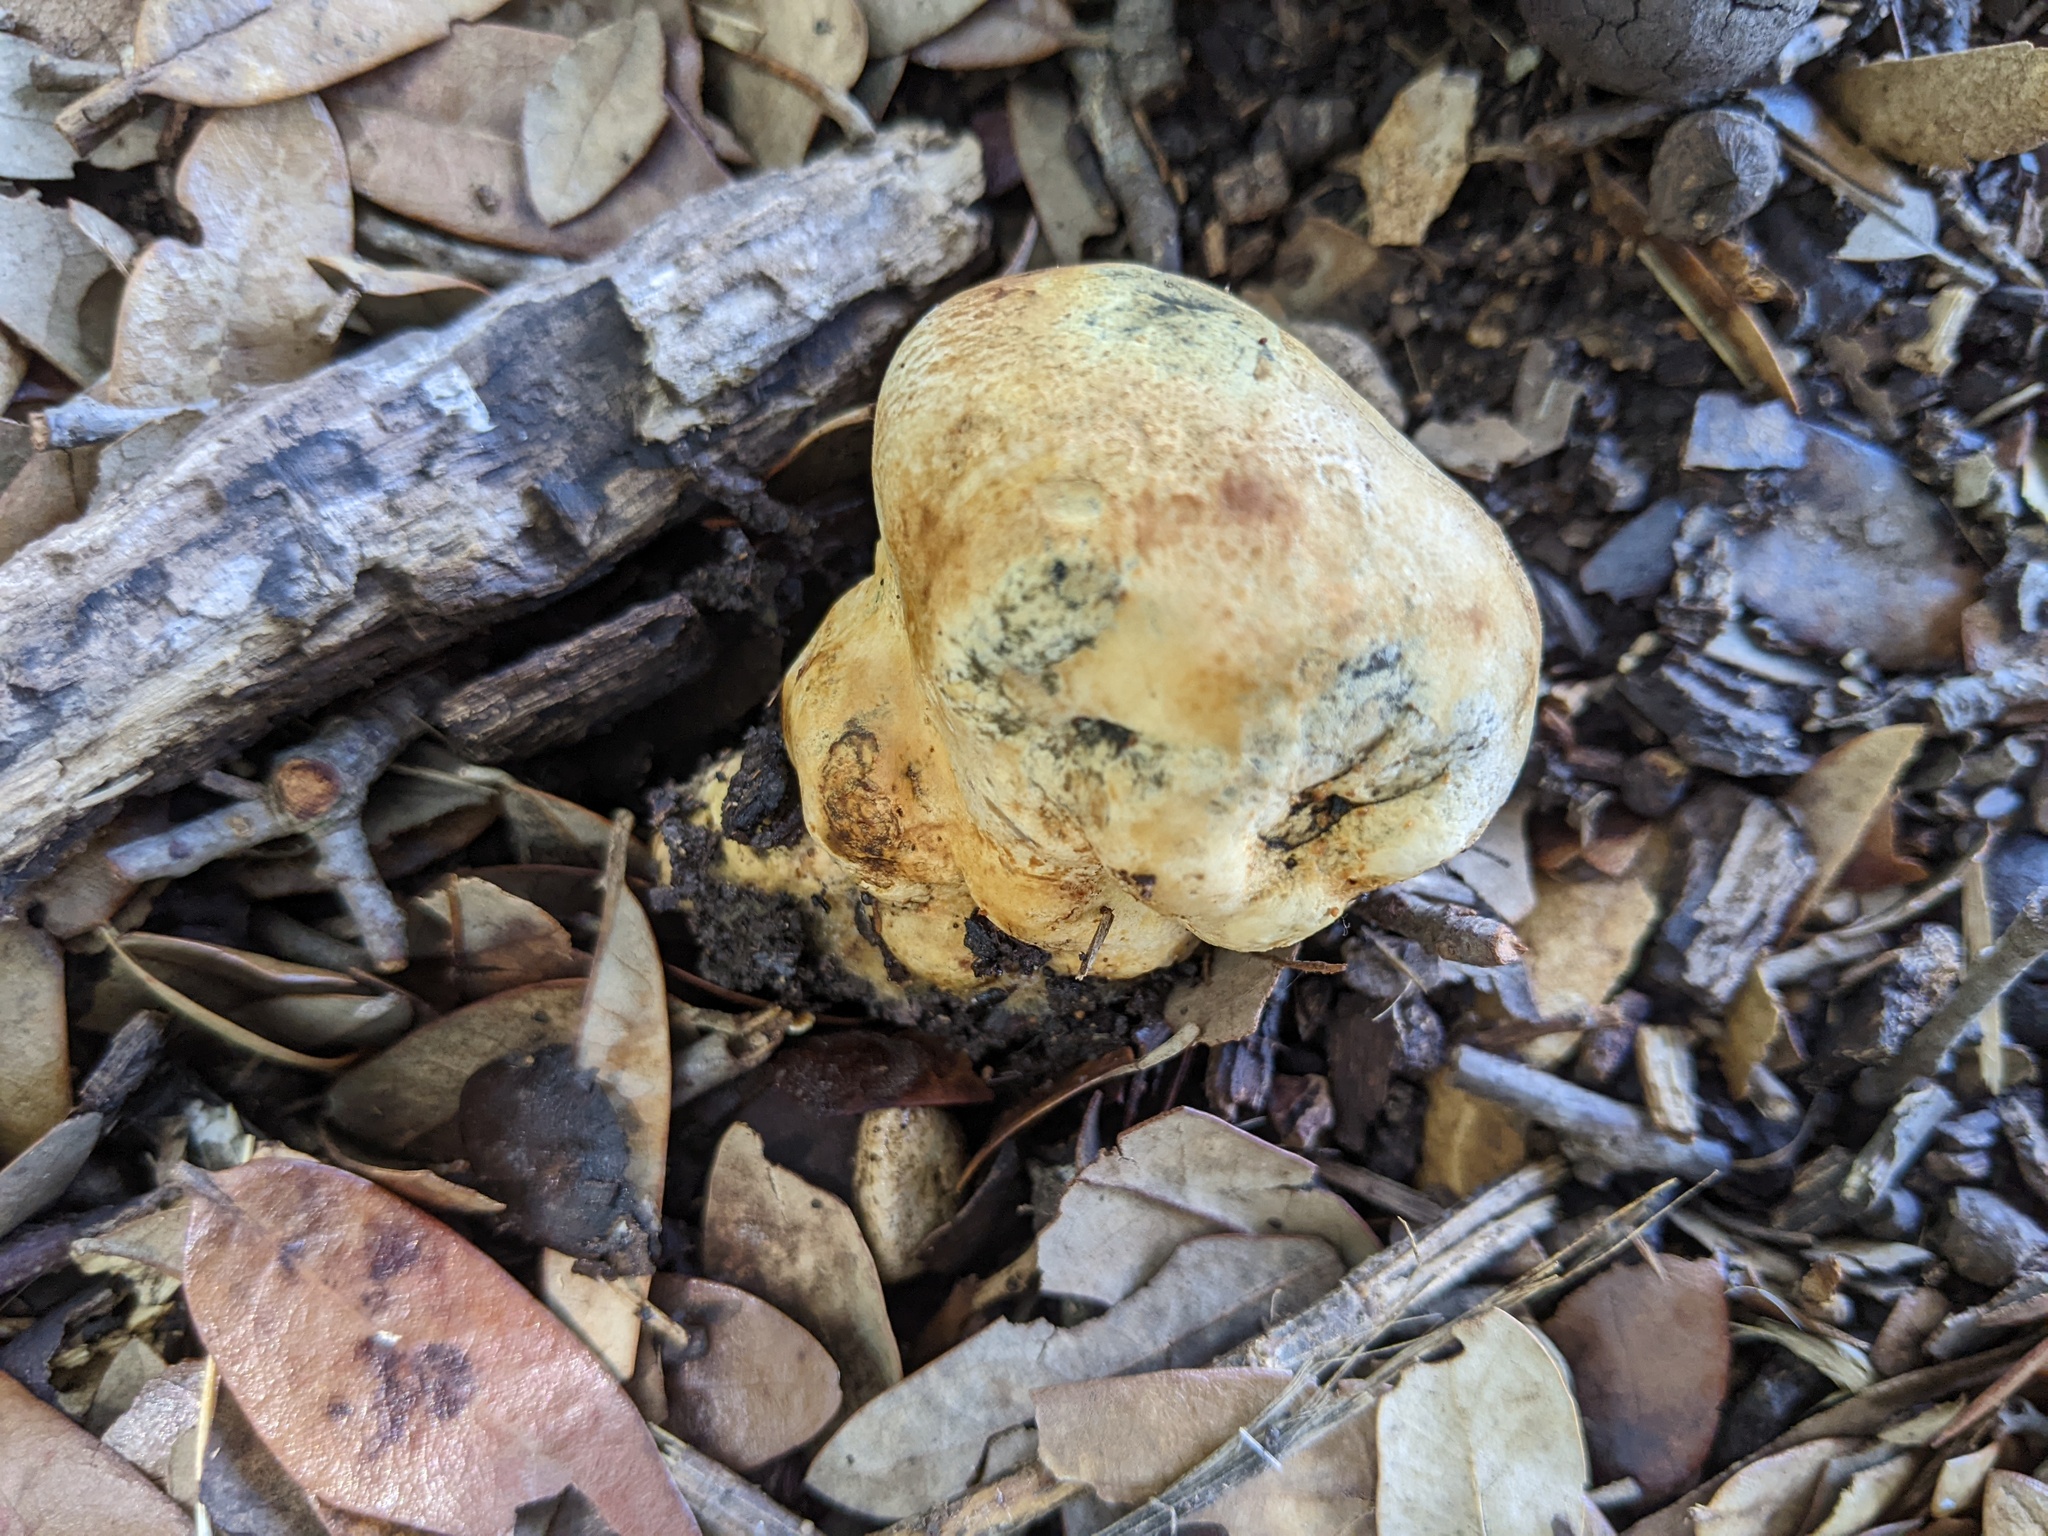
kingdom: Fungi
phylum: Basidiomycota
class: Agaricomycetes
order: Boletales
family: Sclerodermataceae
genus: Pisolithus
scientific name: Pisolithus arenarius
